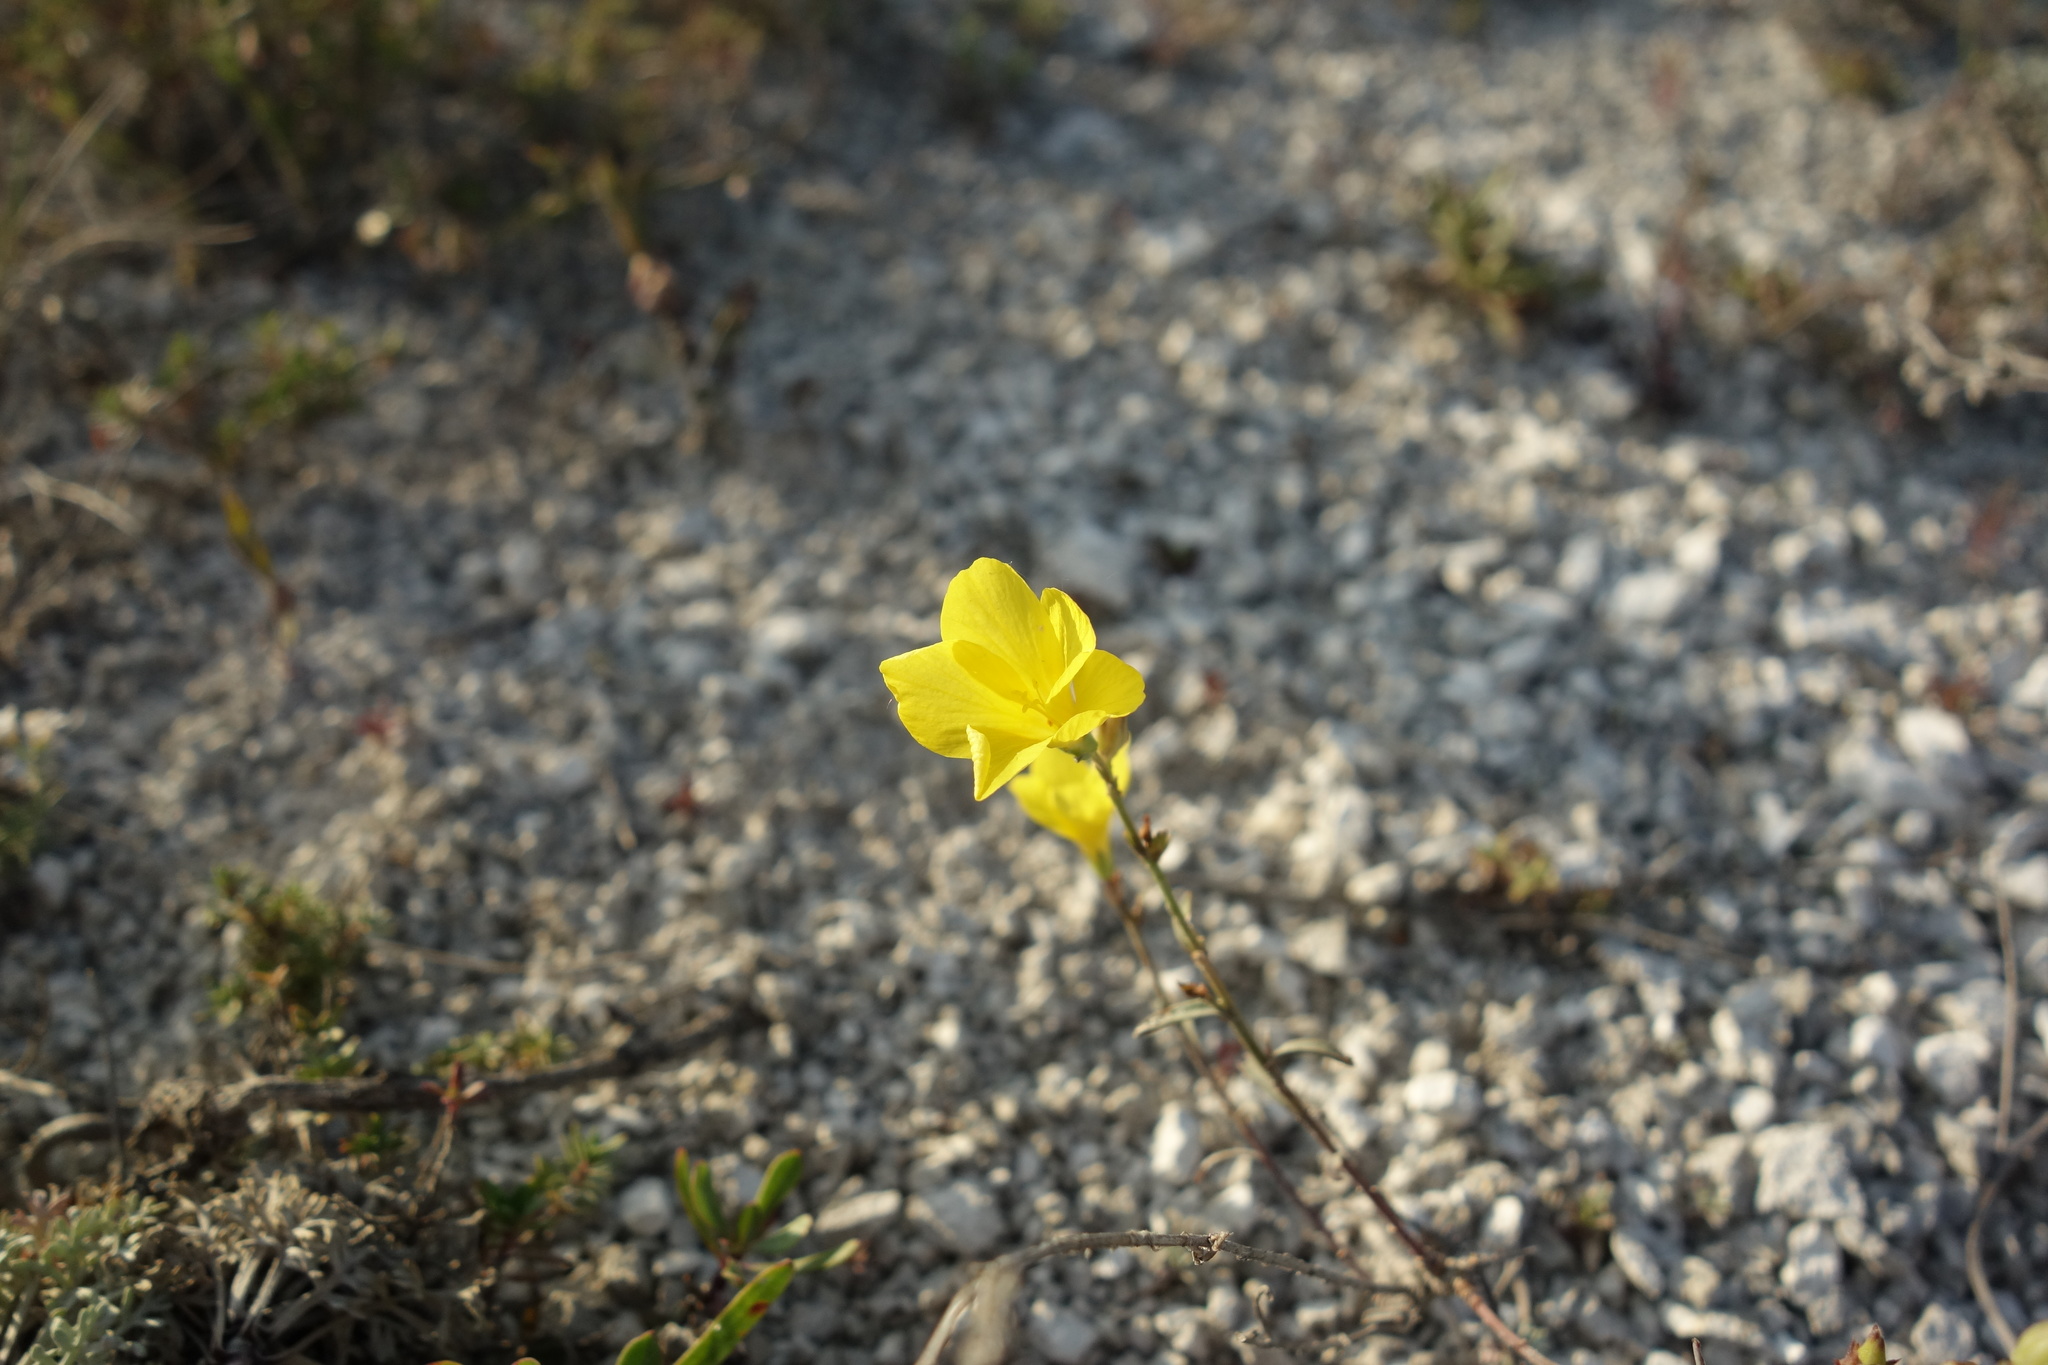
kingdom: Plantae
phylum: Tracheophyta
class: Magnoliopsida
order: Malpighiales
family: Linaceae
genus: Linum
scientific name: Linum ucranicum
